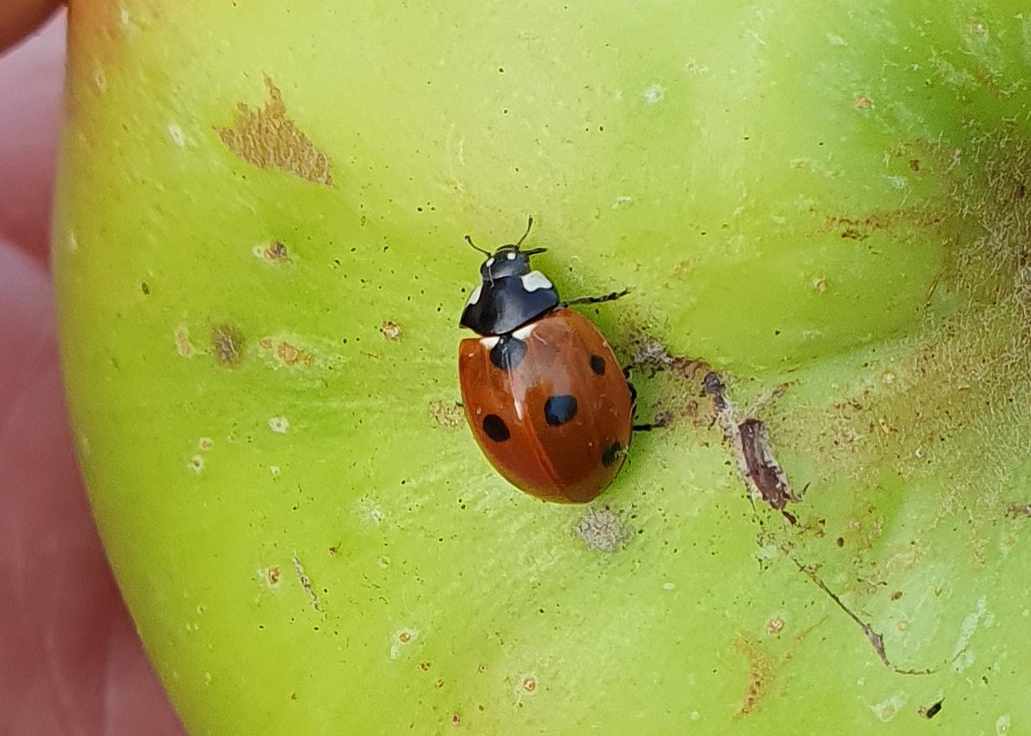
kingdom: Animalia
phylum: Arthropoda
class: Insecta
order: Coleoptera
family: Coccinellidae
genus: Coccinella
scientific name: Coccinella septempunctata
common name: Sevenspotted lady beetle
